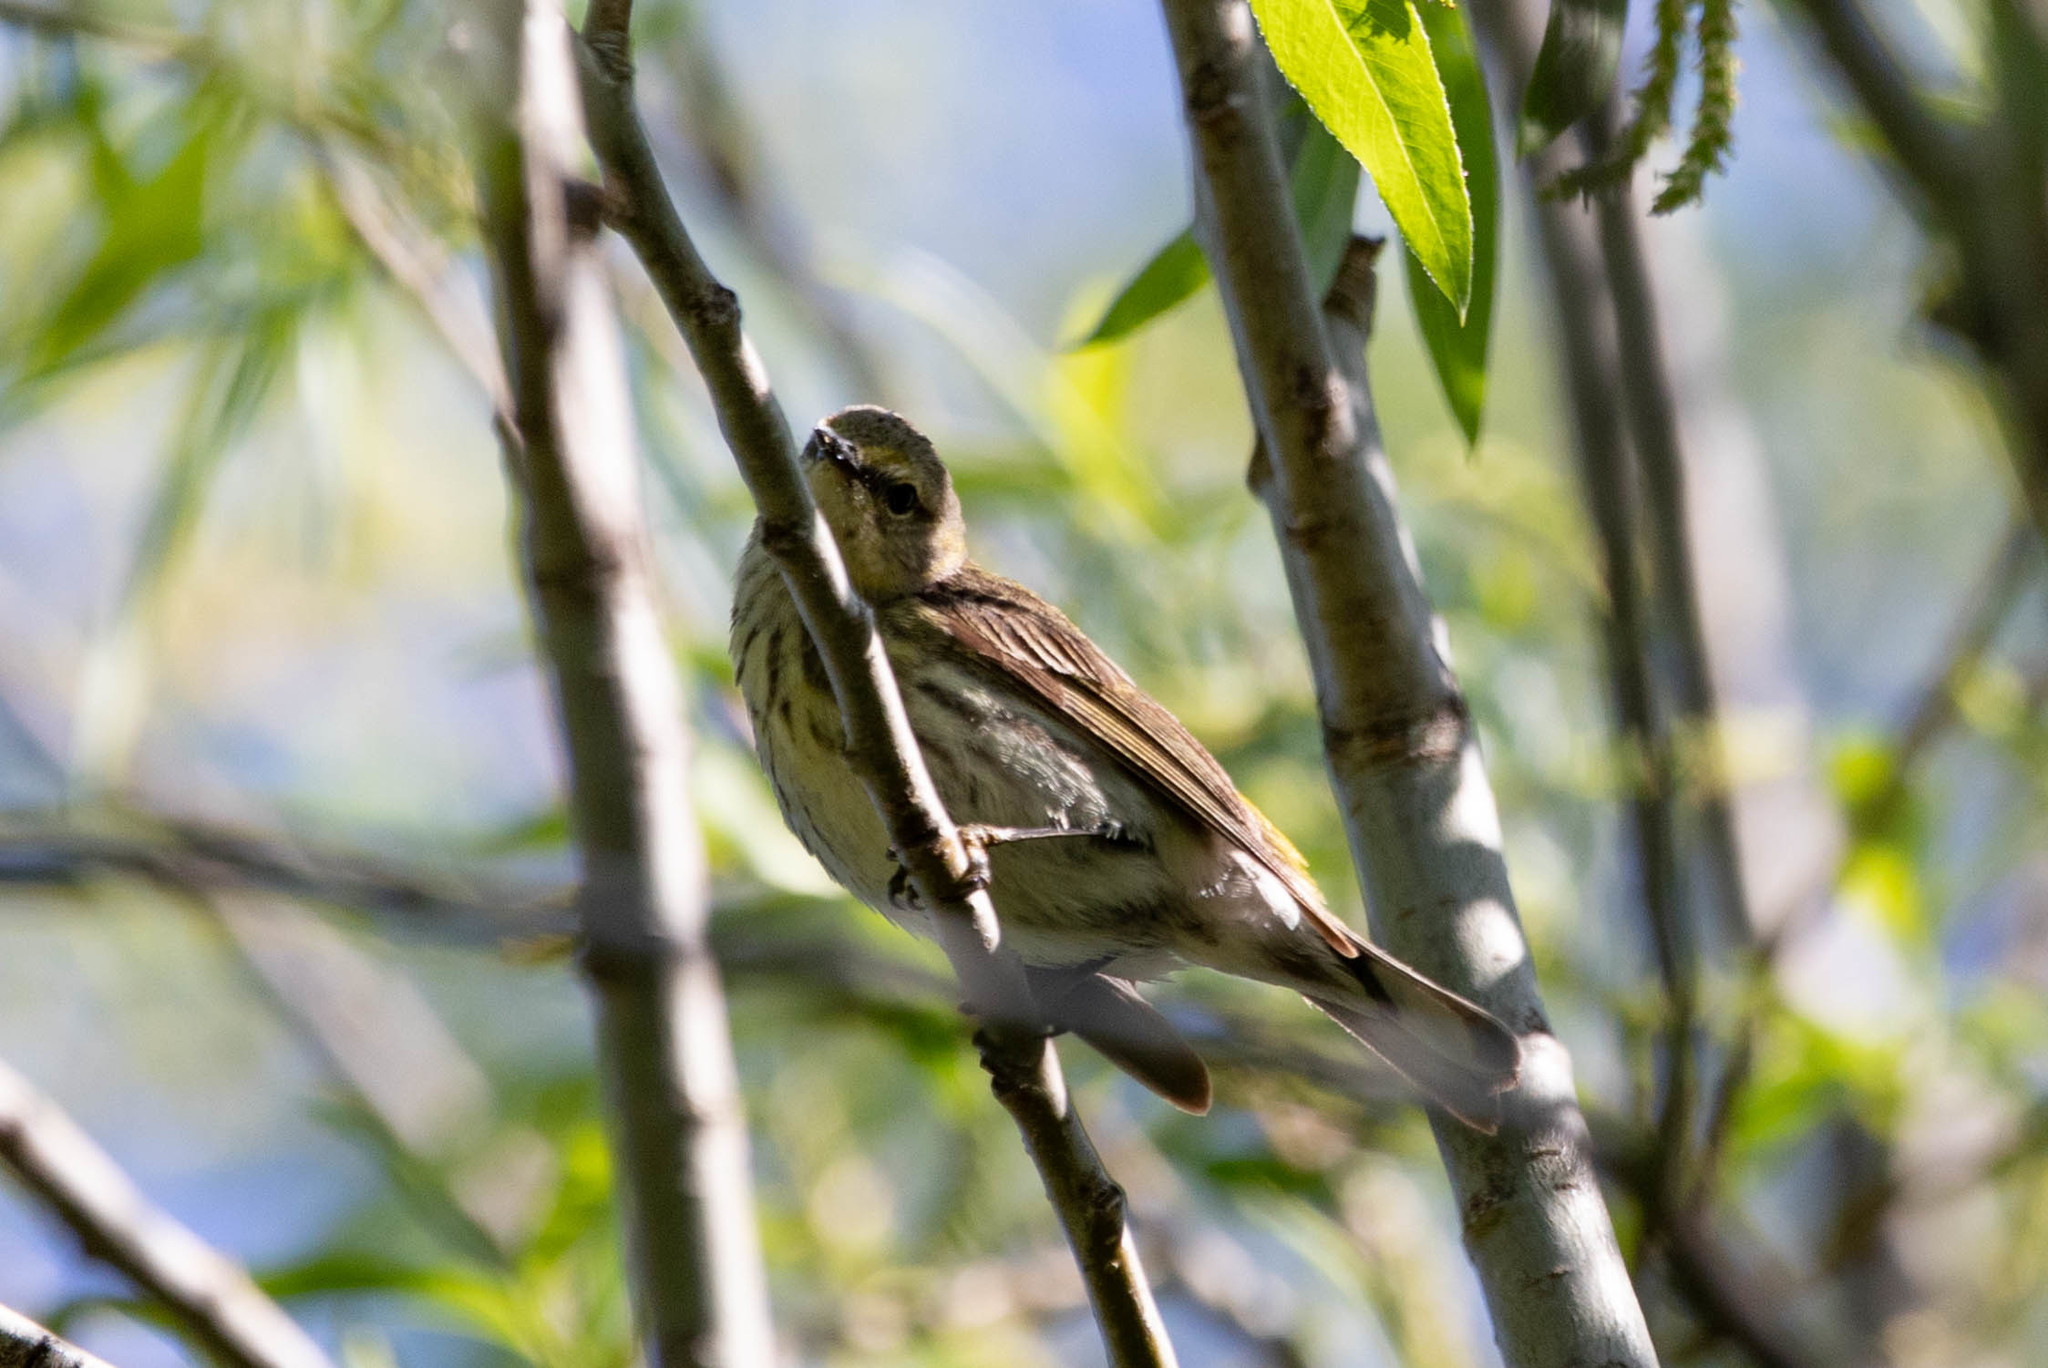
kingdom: Animalia
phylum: Chordata
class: Aves
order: Passeriformes
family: Parulidae
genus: Setophaga
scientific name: Setophaga tigrina
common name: Cape may warbler
